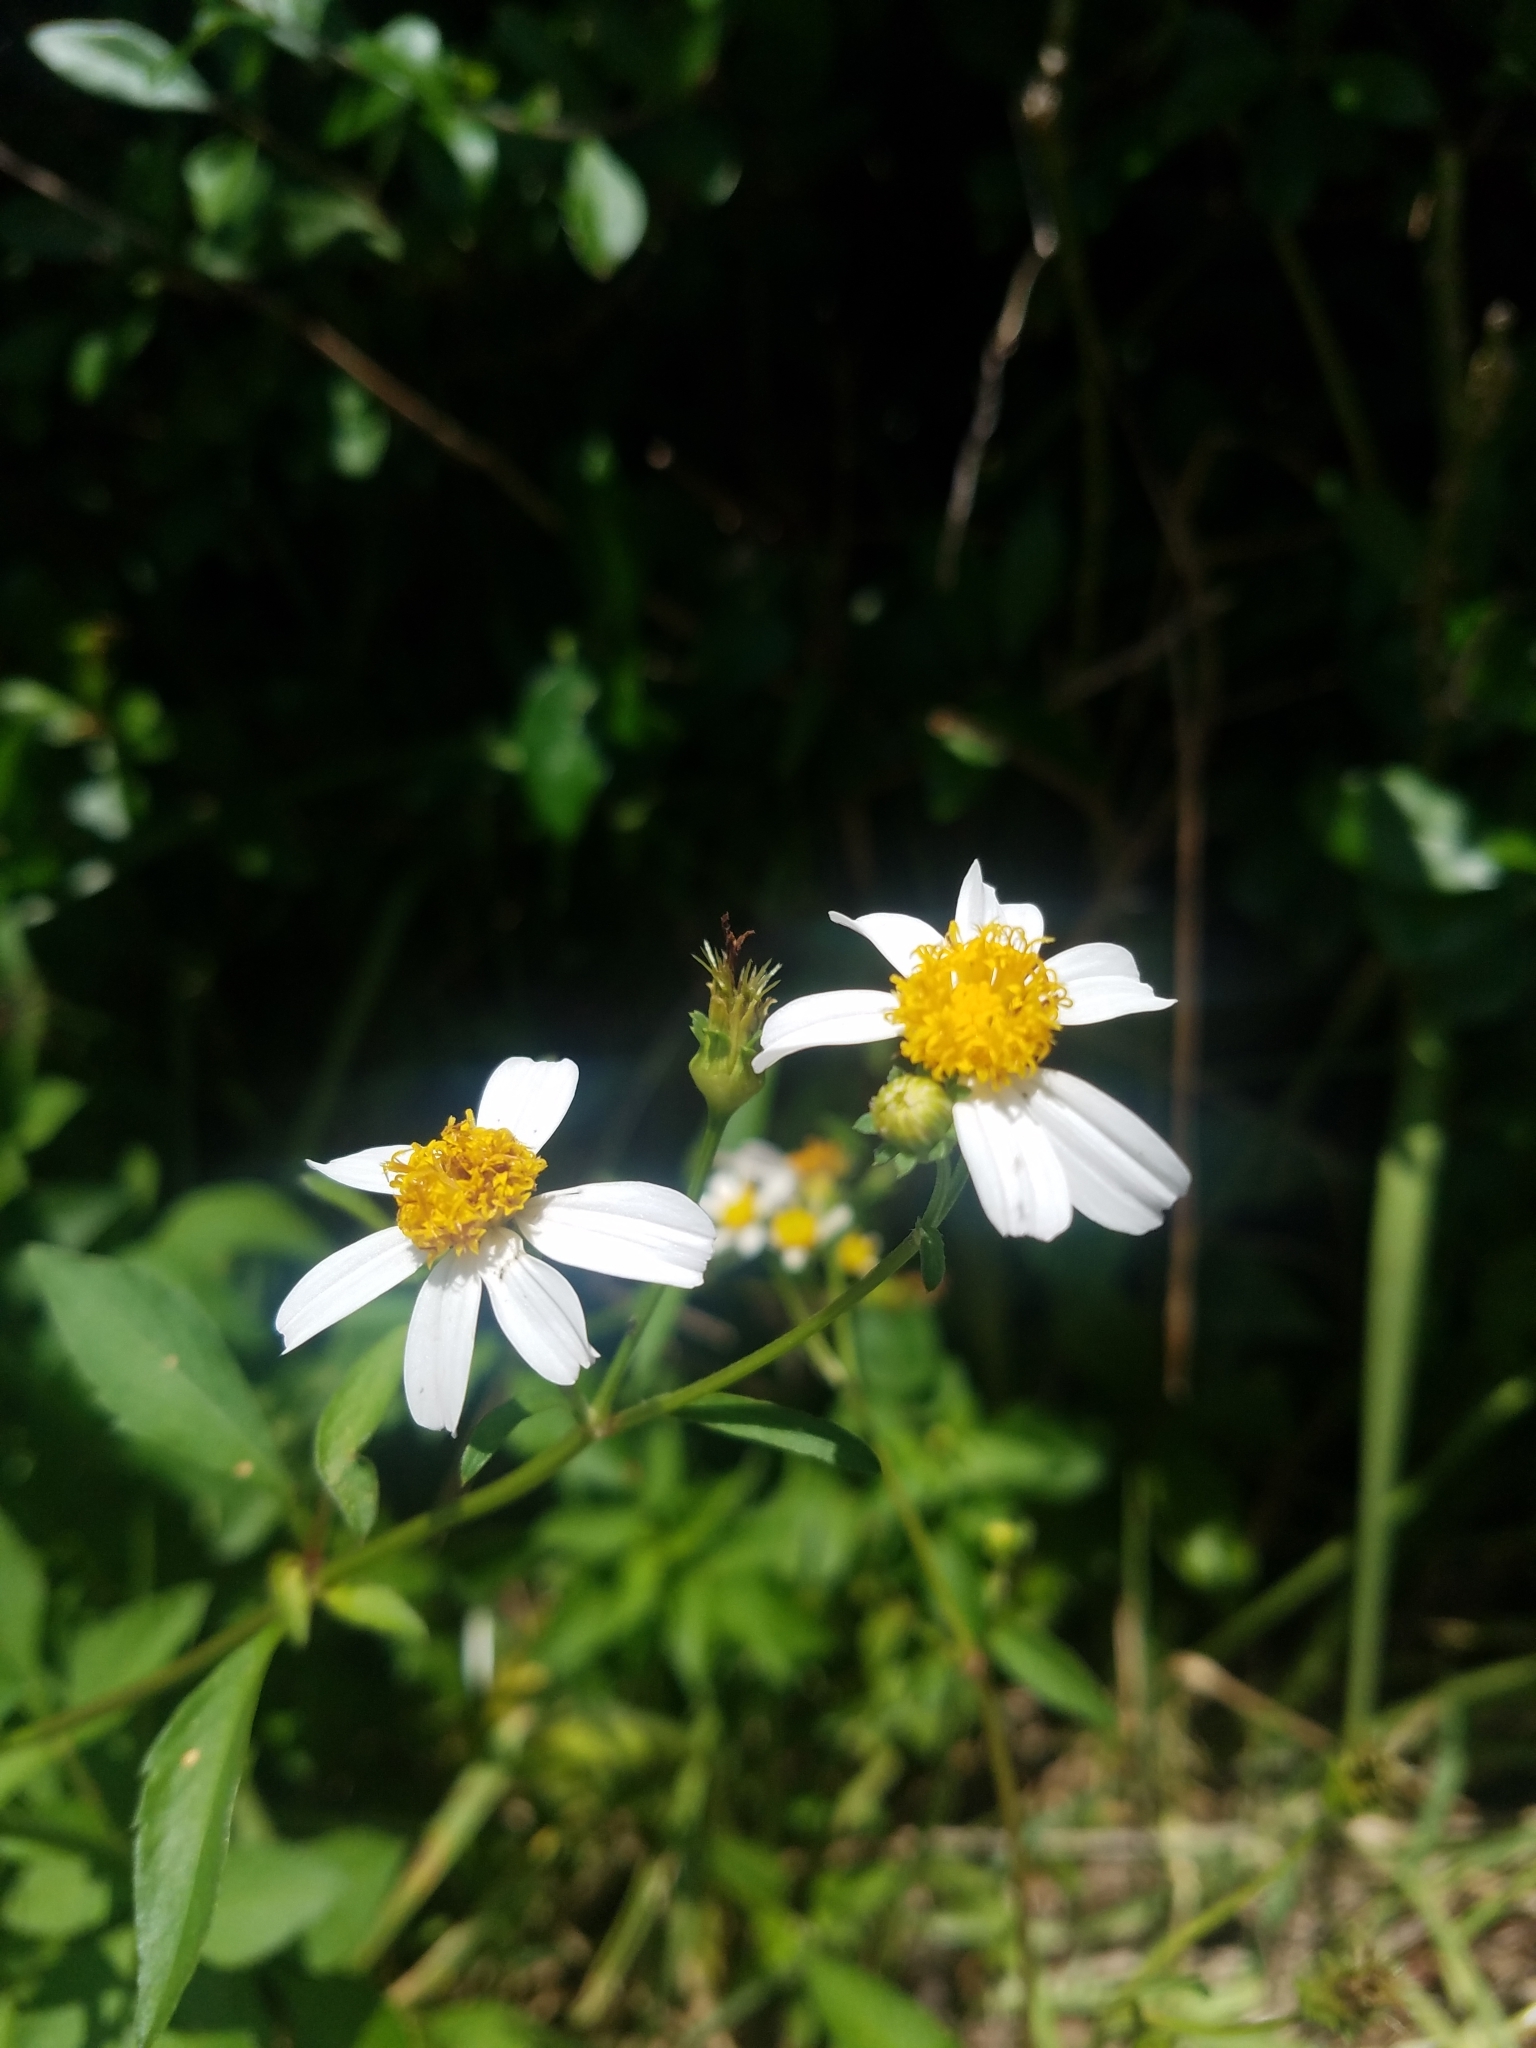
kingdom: Plantae
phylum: Tracheophyta
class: Magnoliopsida
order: Asterales
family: Asteraceae
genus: Bidens
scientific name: Bidens alba
